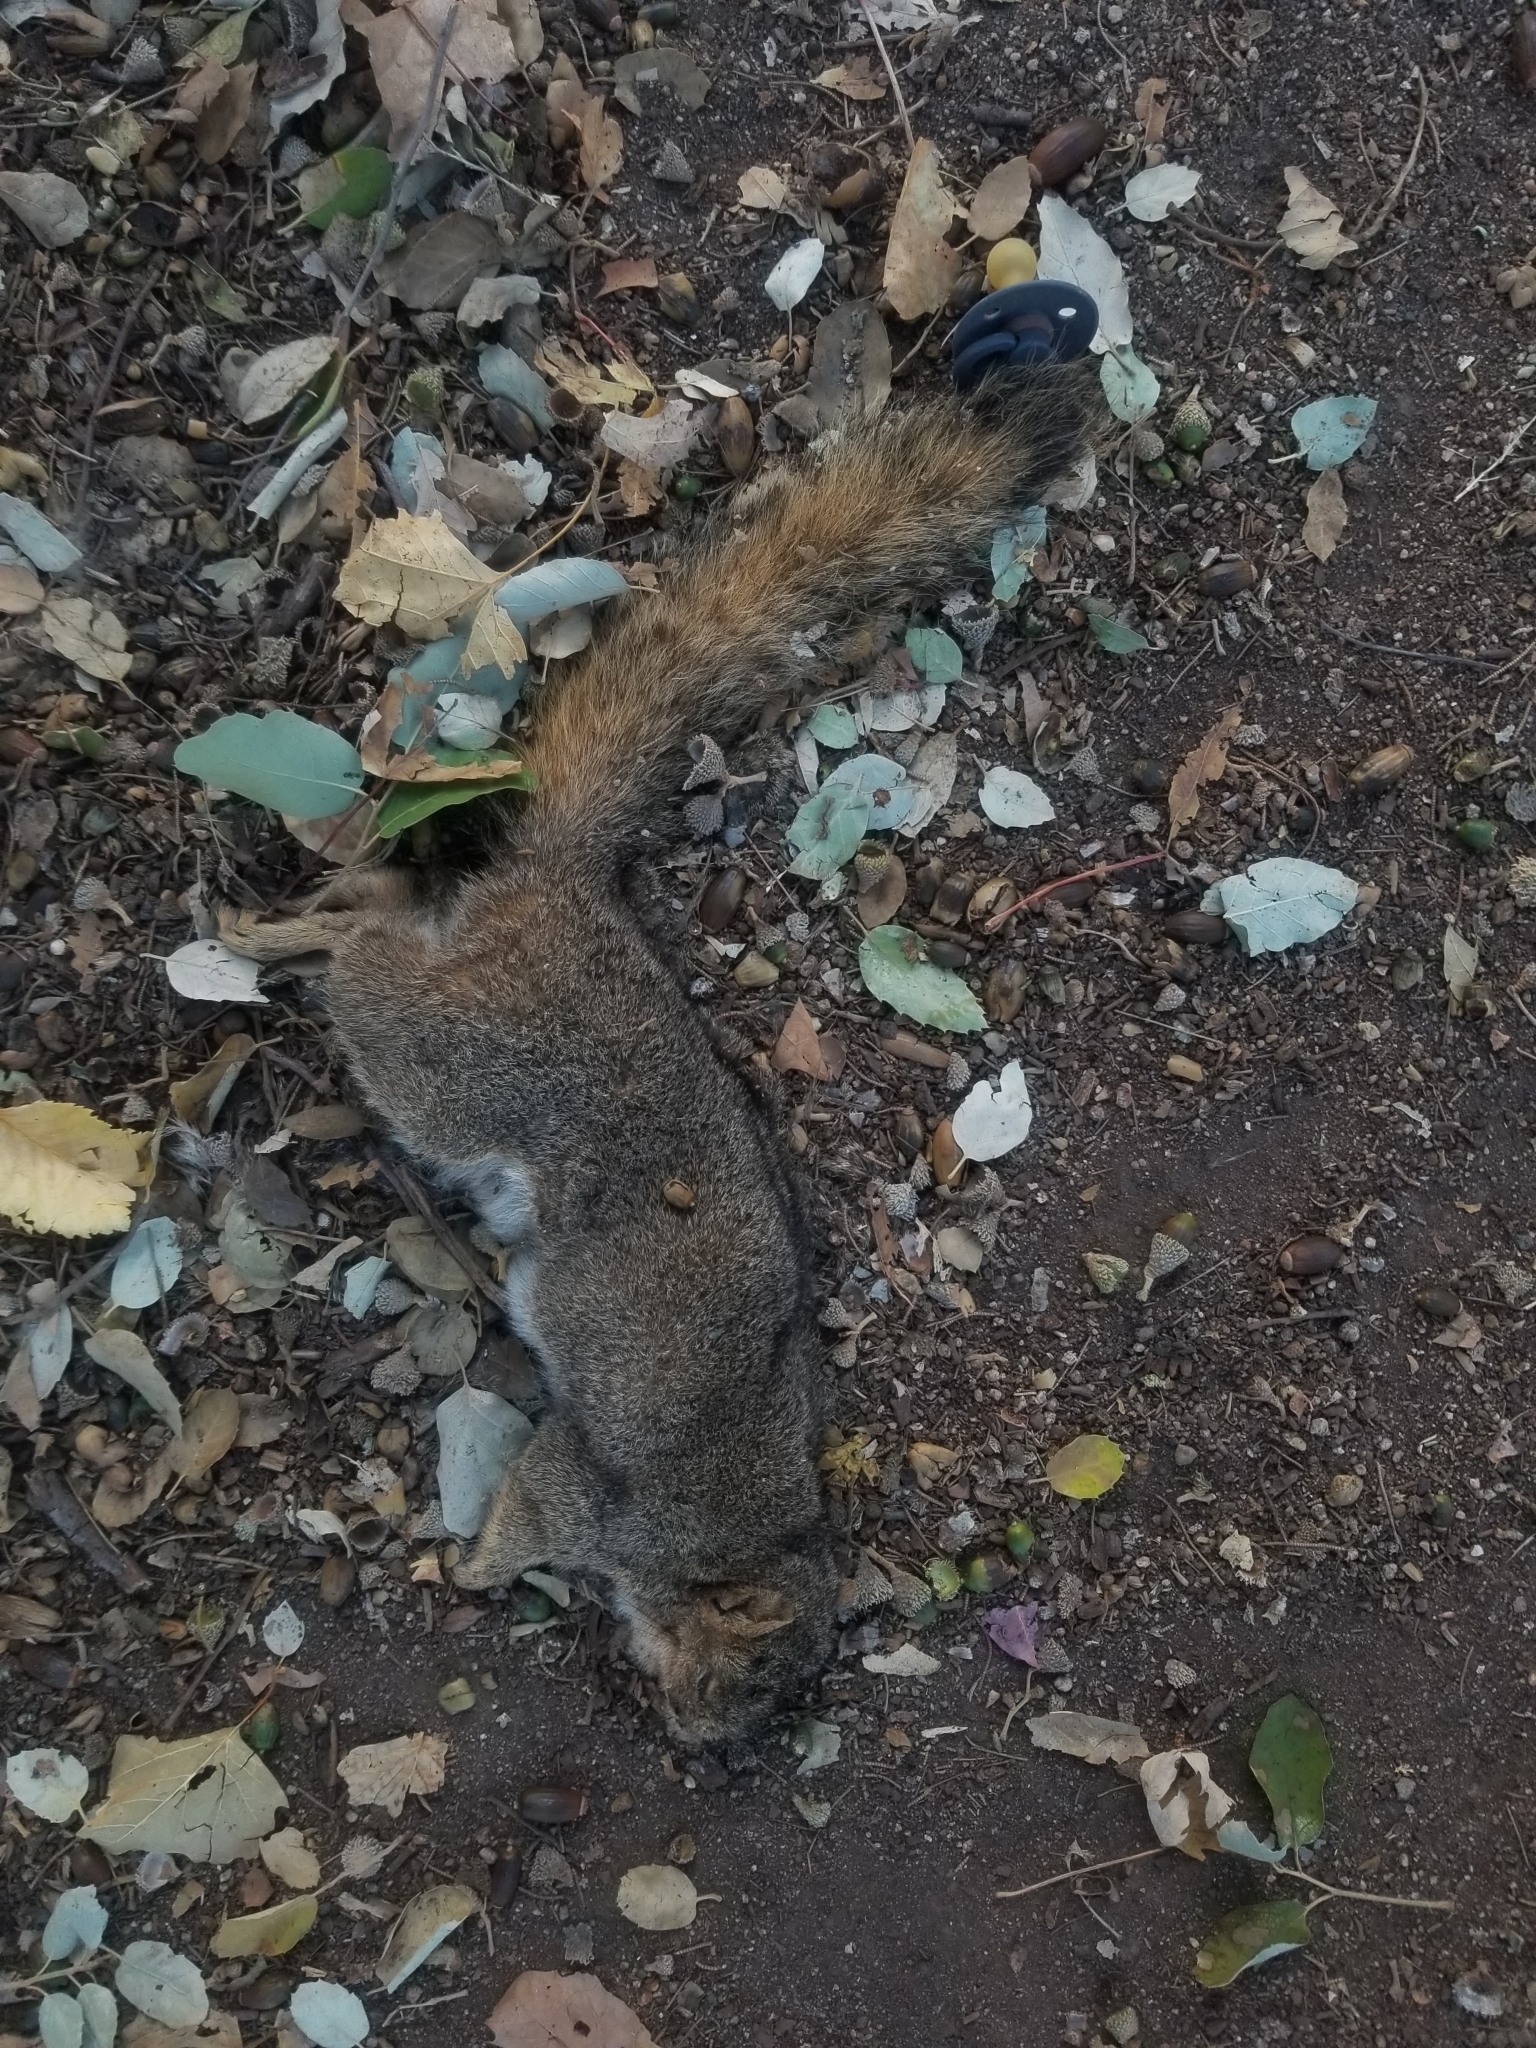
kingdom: Animalia
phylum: Chordata
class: Mammalia
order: Rodentia
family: Sciuridae
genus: Sciurus
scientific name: Sciurus niger
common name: Fox squirrel
